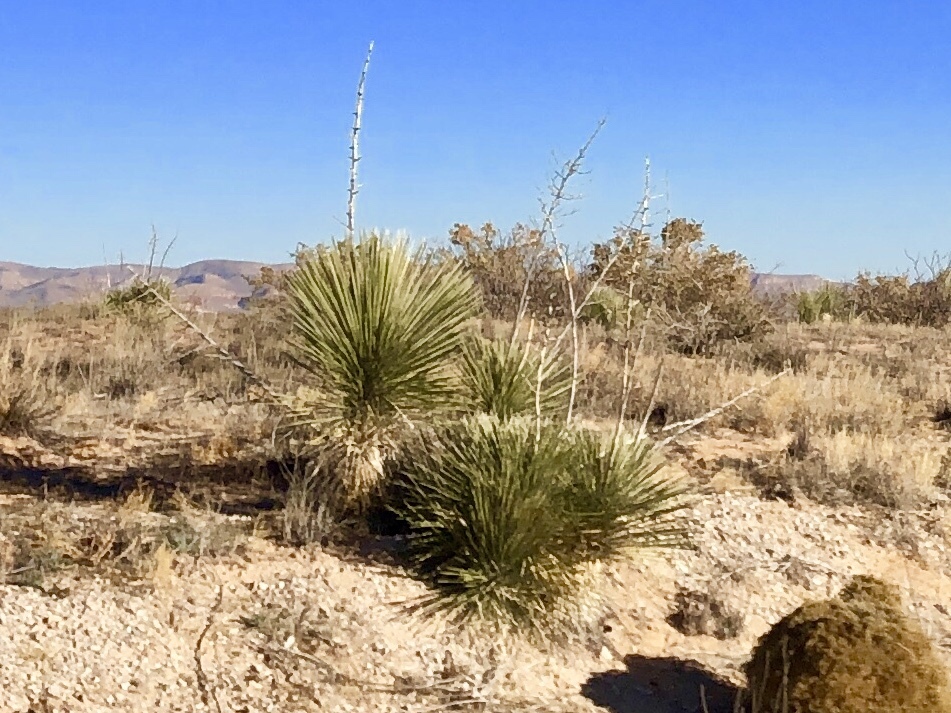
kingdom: Plantae
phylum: Tracheophyta
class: Liliopsida
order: Asparagales
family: Asparagaceae
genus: Yucca
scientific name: Yucca elata
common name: Palmella
